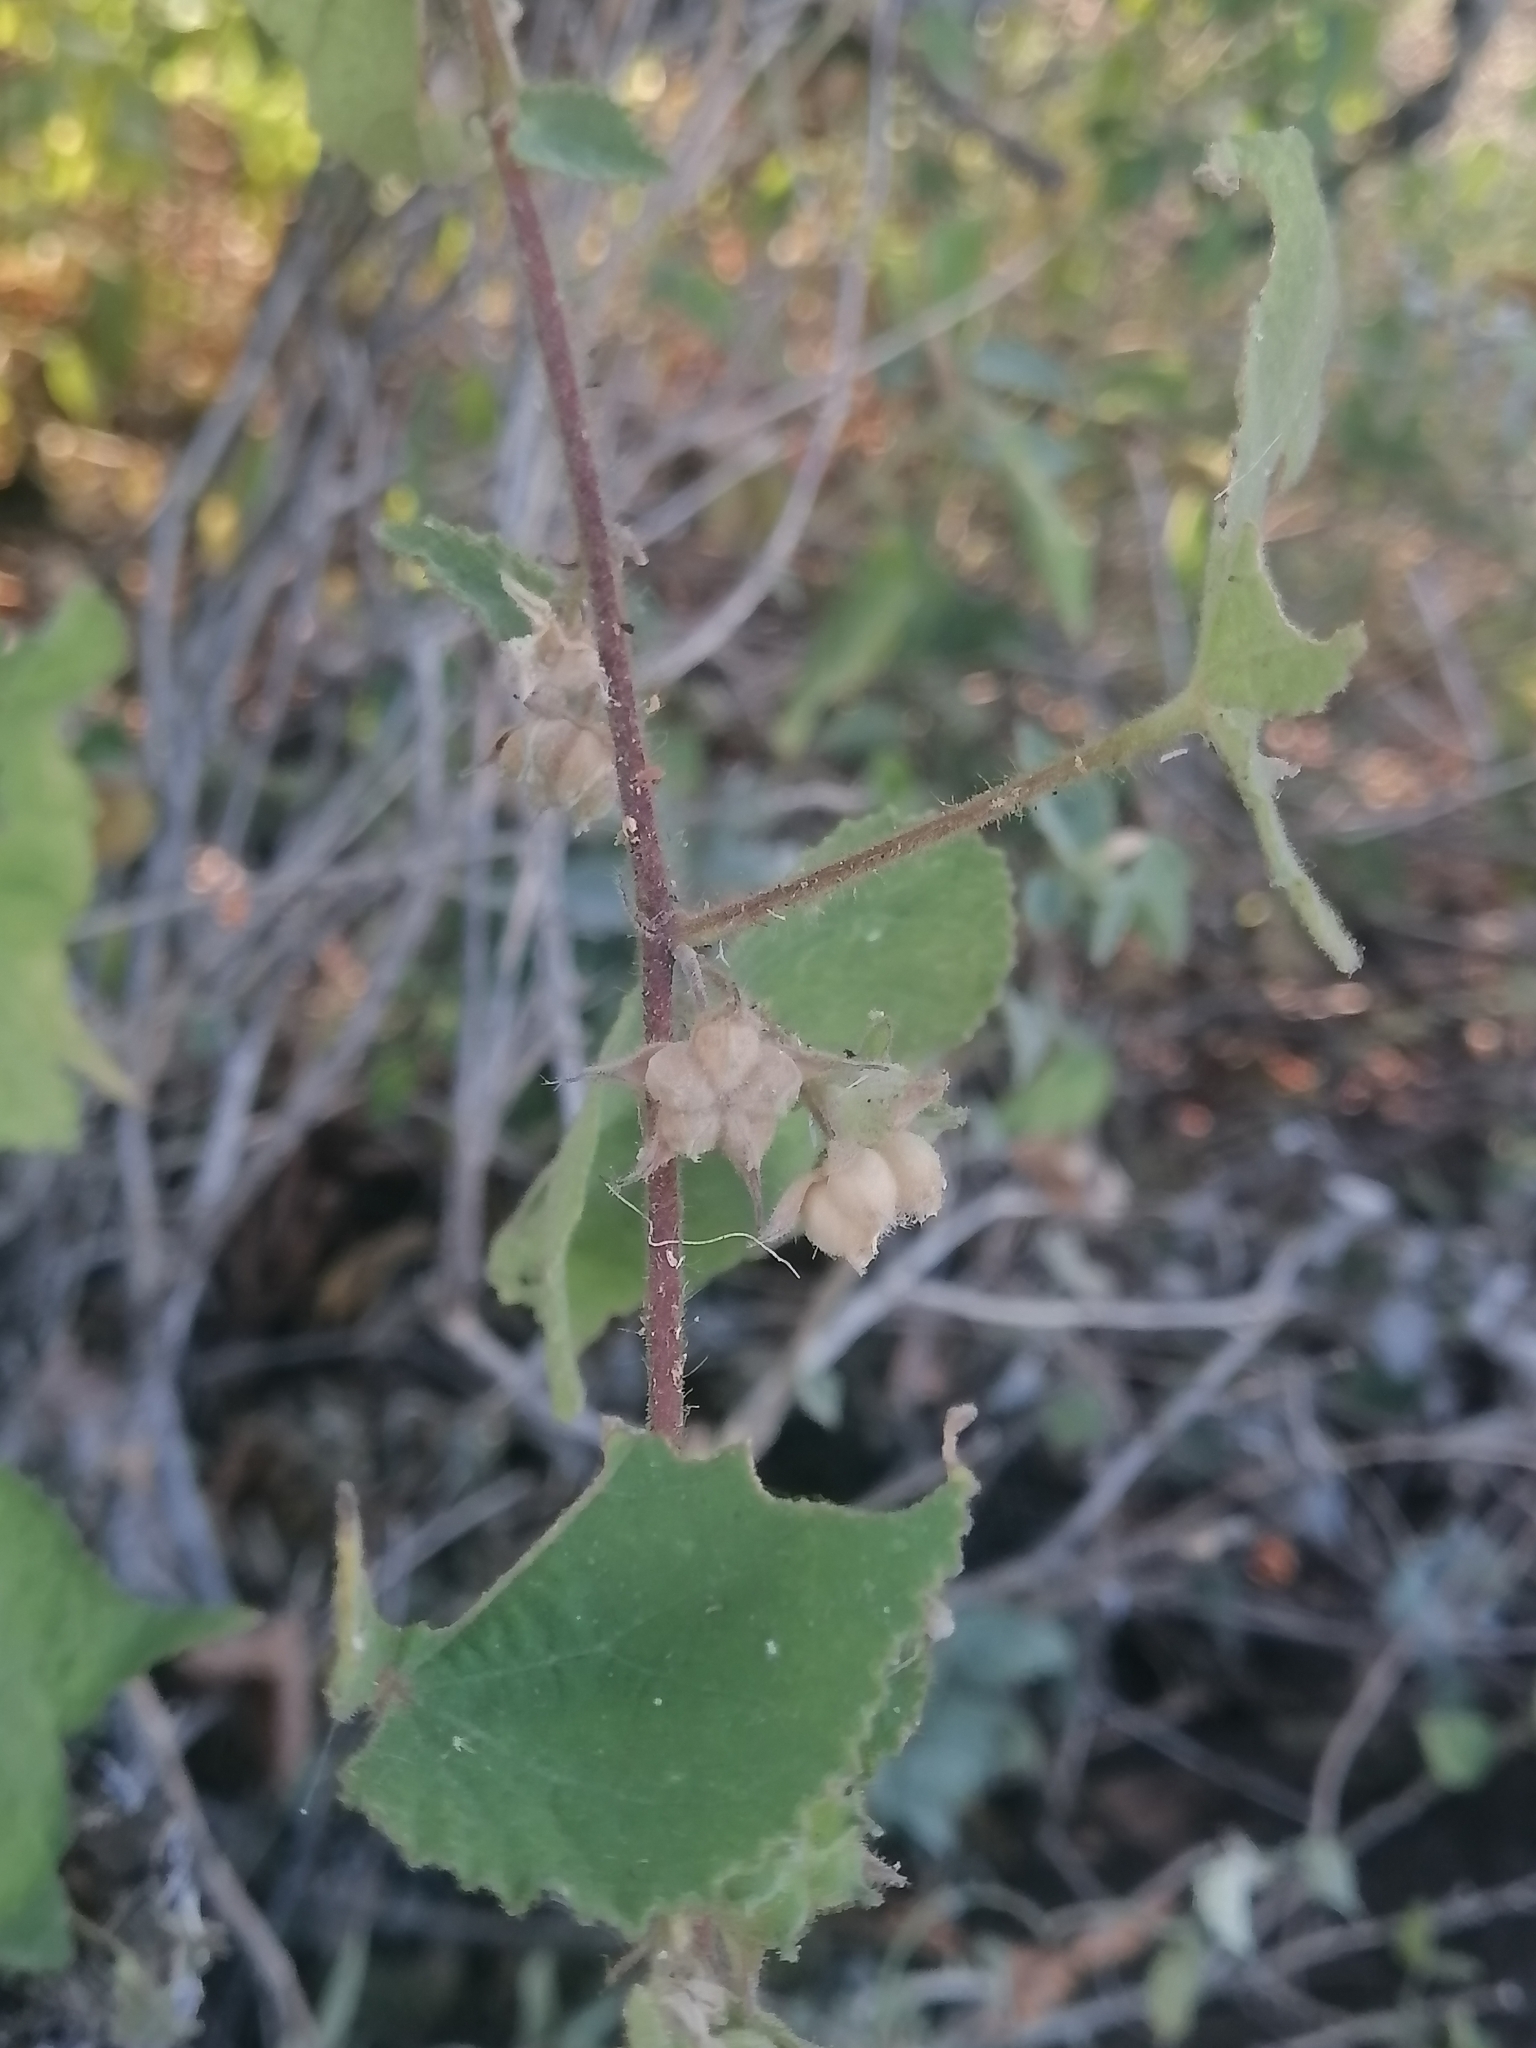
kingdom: Plantae
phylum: Tracheophyta
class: Magnoliopsida
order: Malvales
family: Malvaceae
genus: Abutilon
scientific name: Abutilon bivalve
